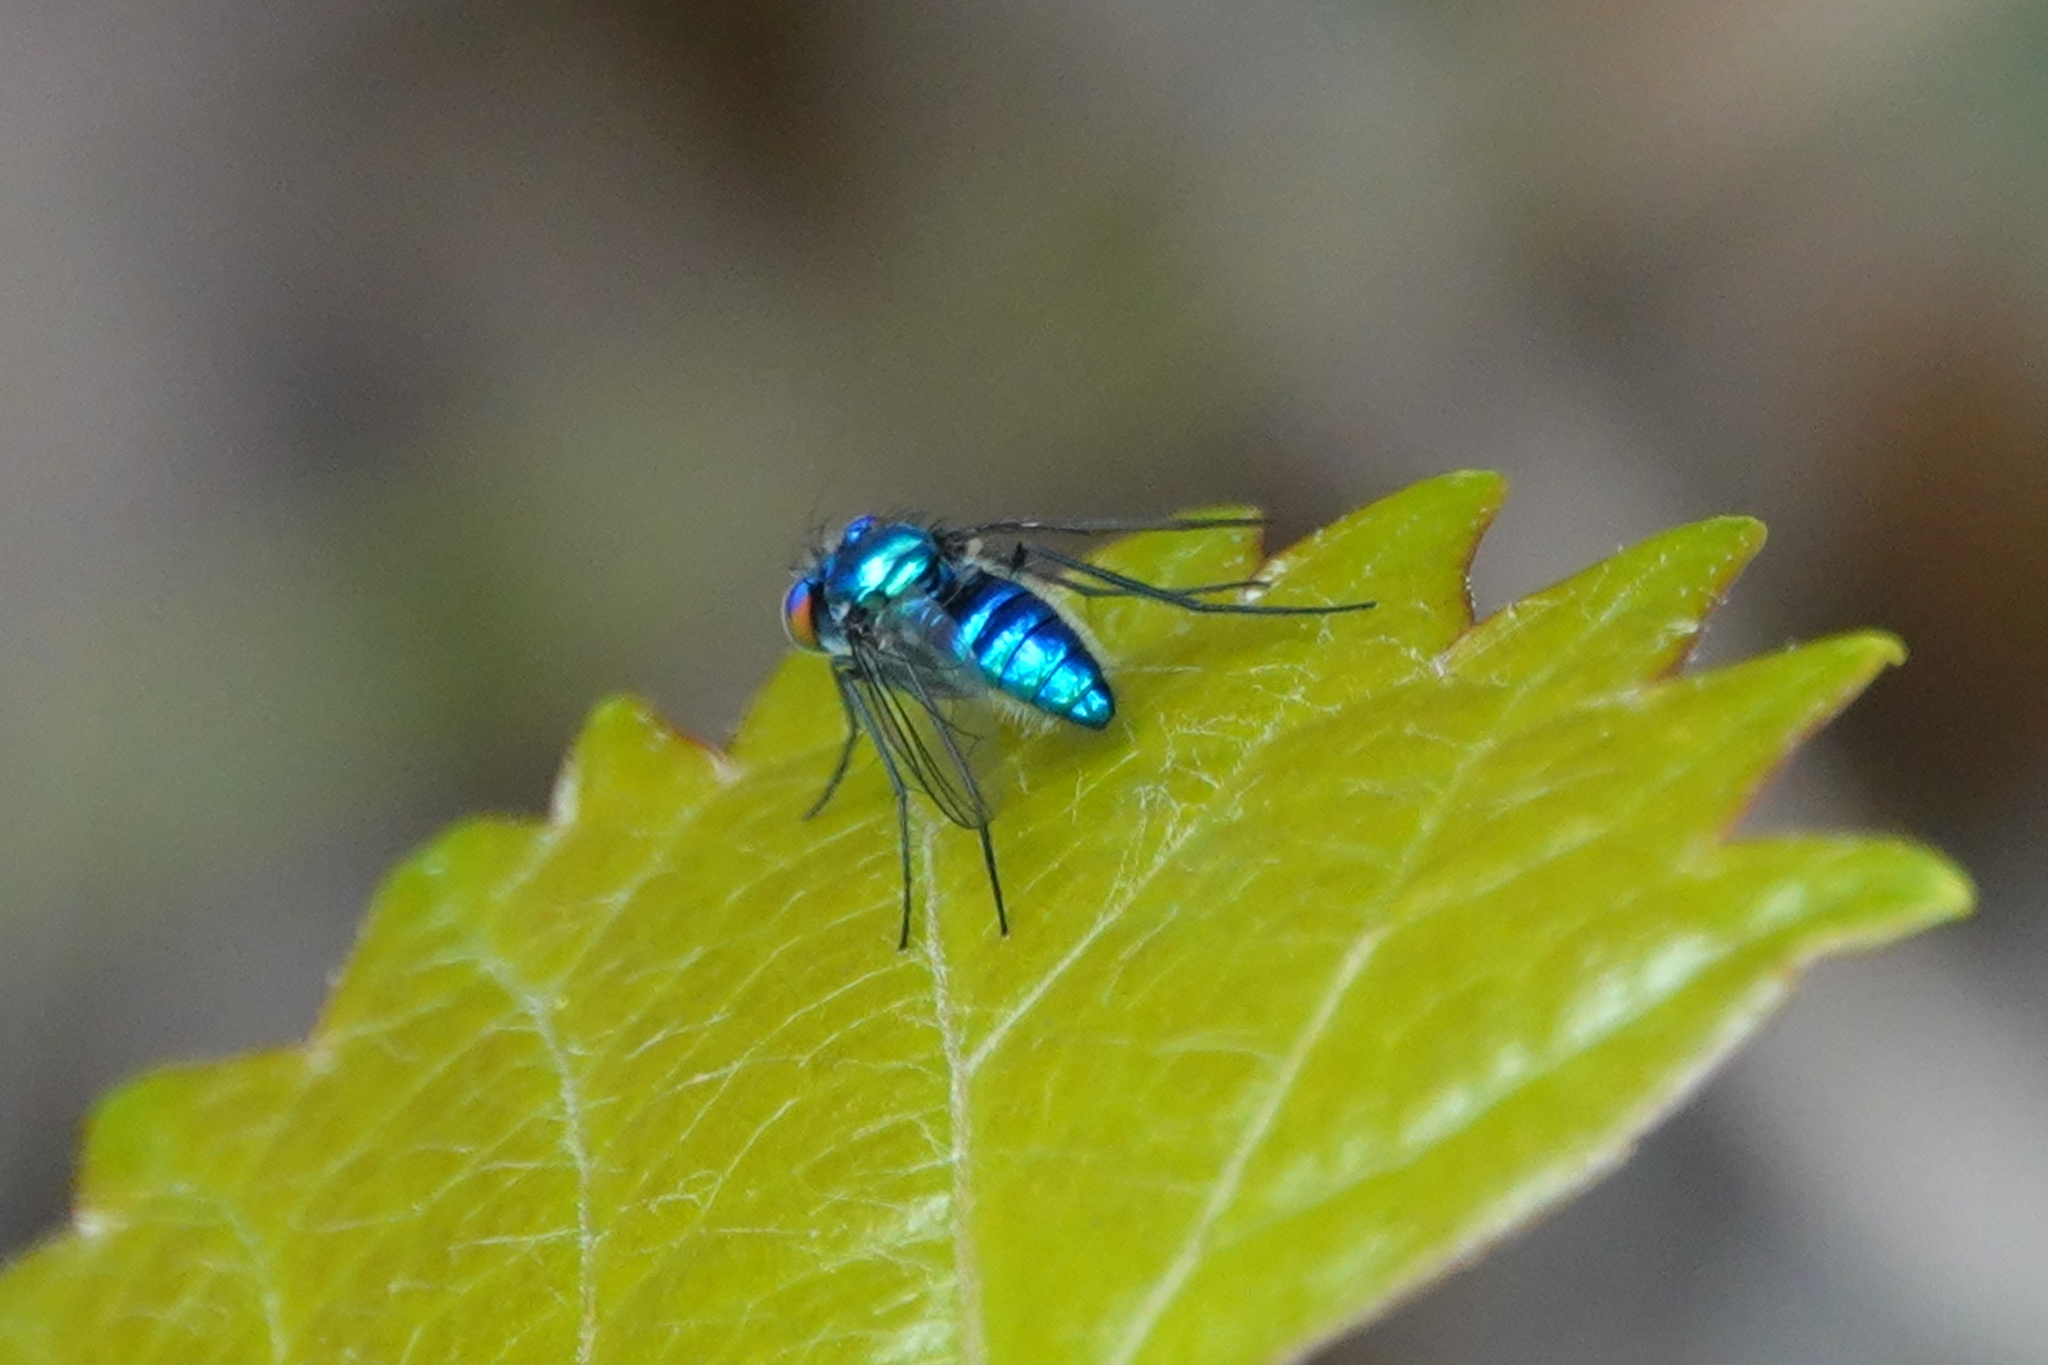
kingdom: Animalia
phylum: Arthropoda
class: Insecta
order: Diptera
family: Dolichopodidae
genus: Condylostylus
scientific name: Condylostylus mundus
